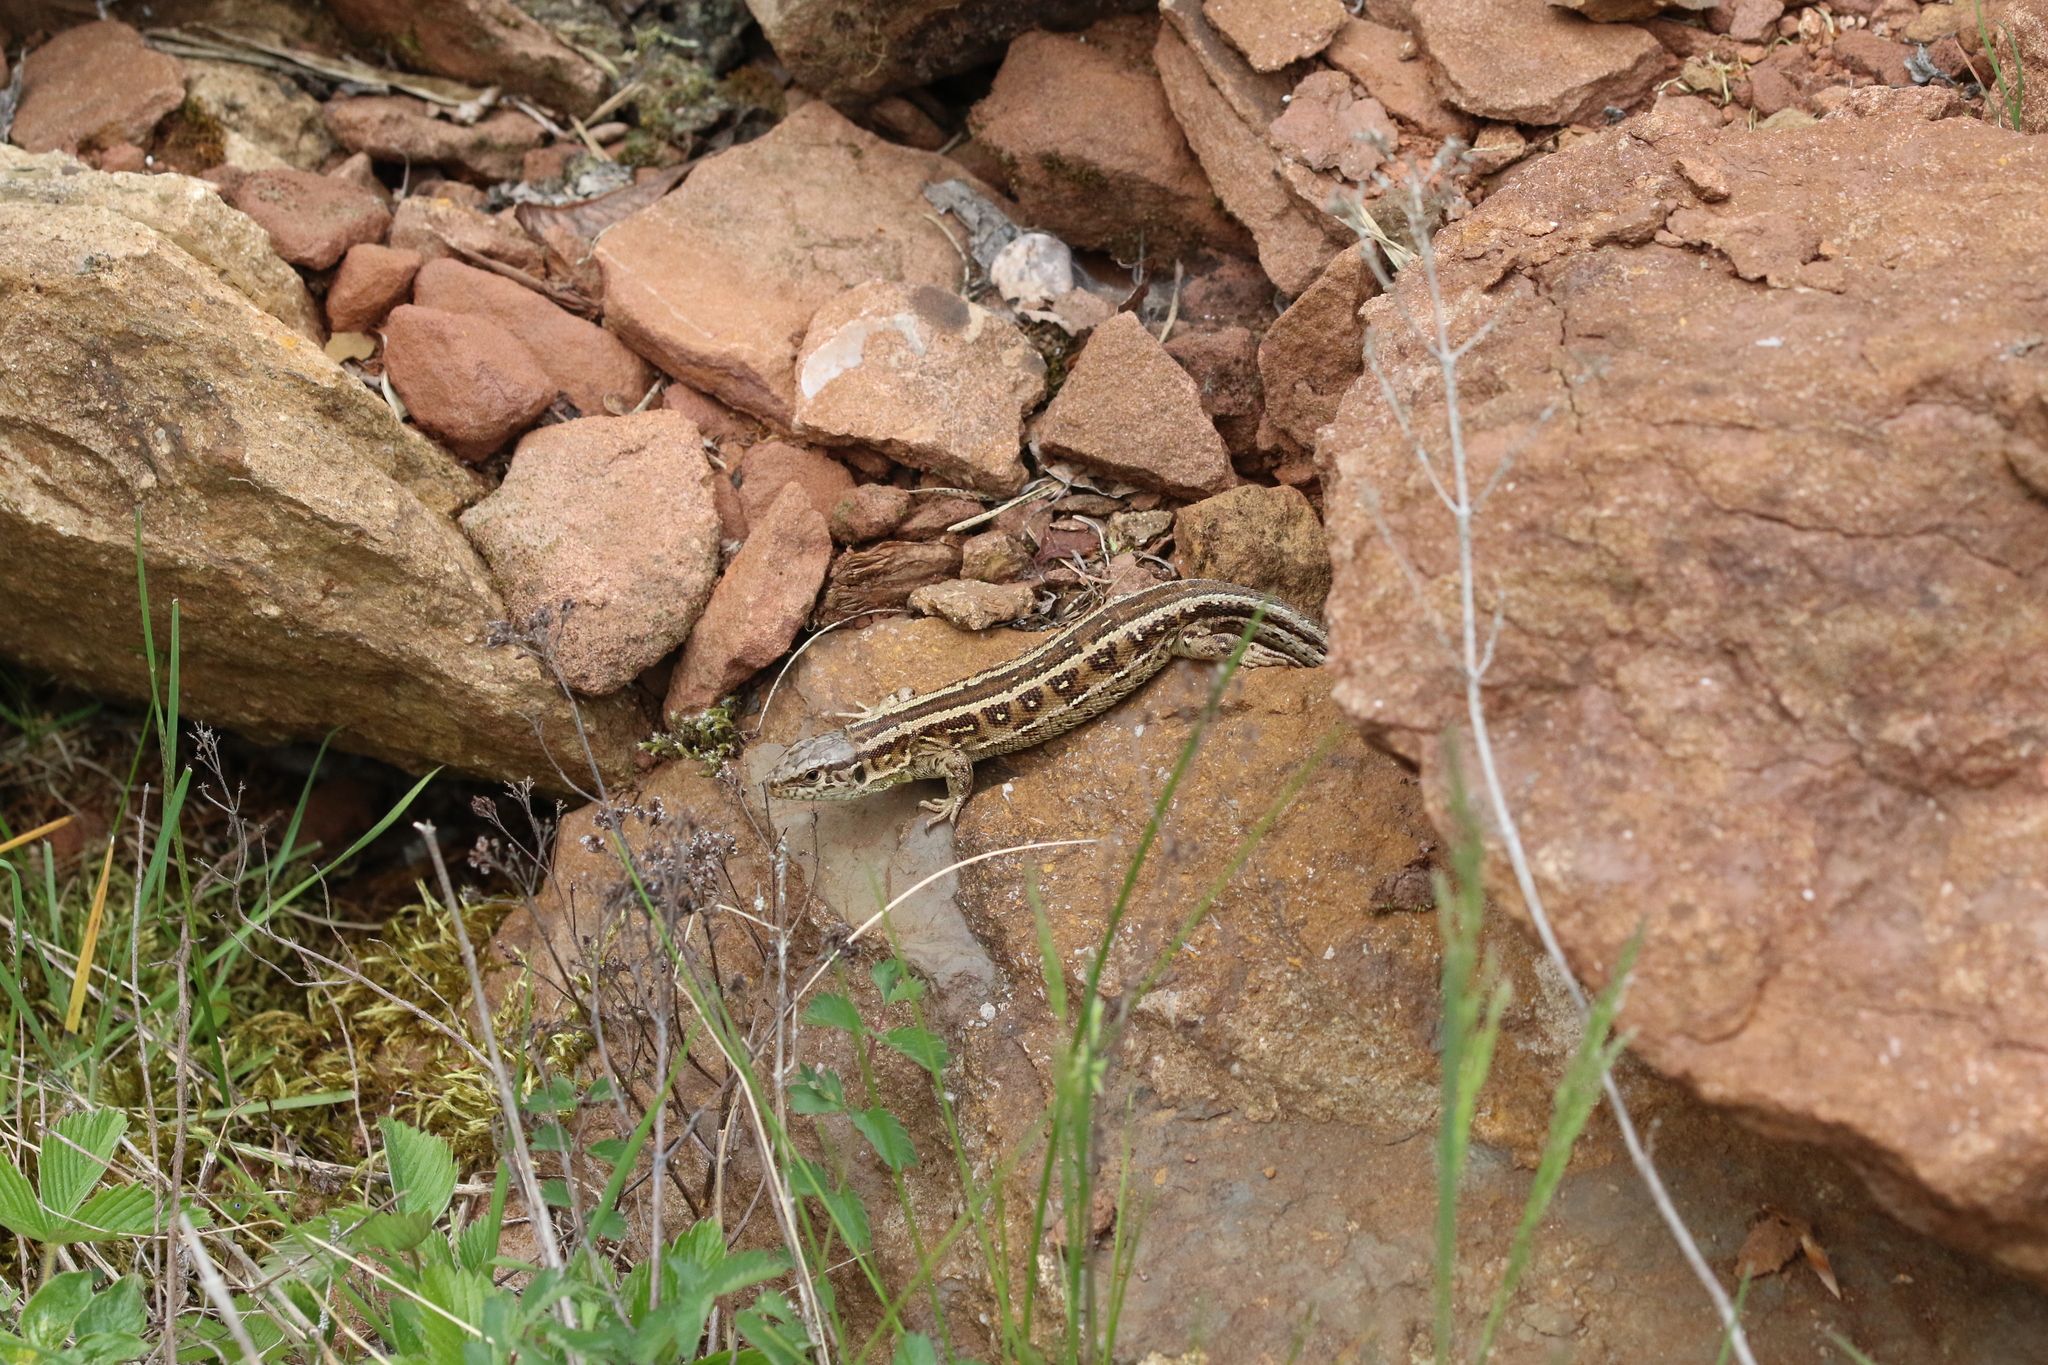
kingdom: Animalia
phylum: Chordata
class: Squamata
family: Lacertidae
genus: Lacerta
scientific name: Lacerta agilis
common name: Sand lizard
